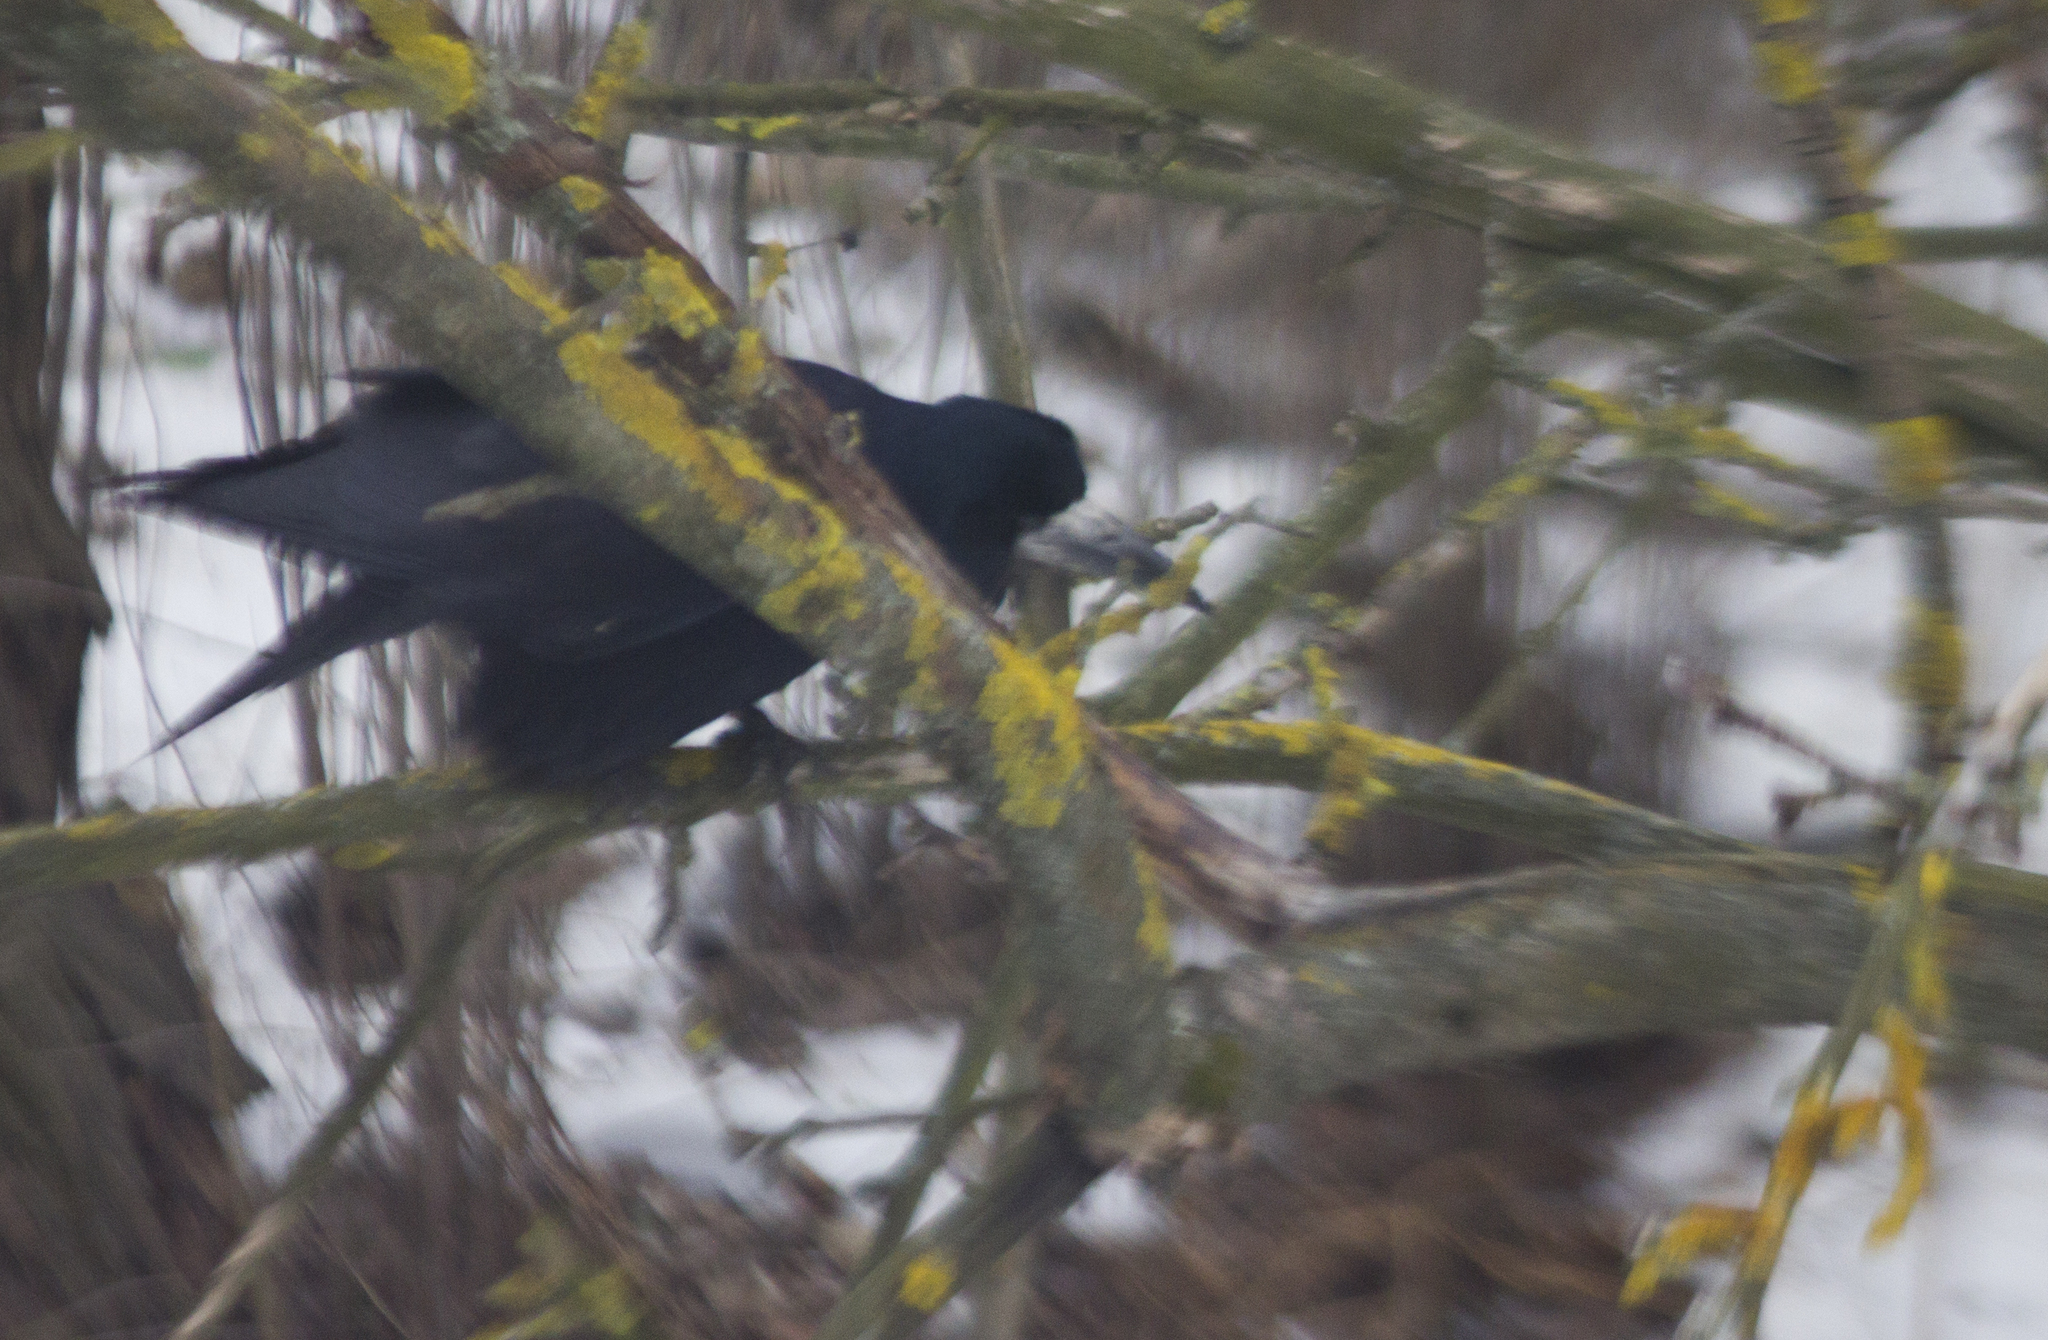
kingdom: Animalia
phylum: Chordata
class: Aves
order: Passeriformes
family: Corvidae
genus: Corvus
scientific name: Corvus frugilegus
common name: Rook
